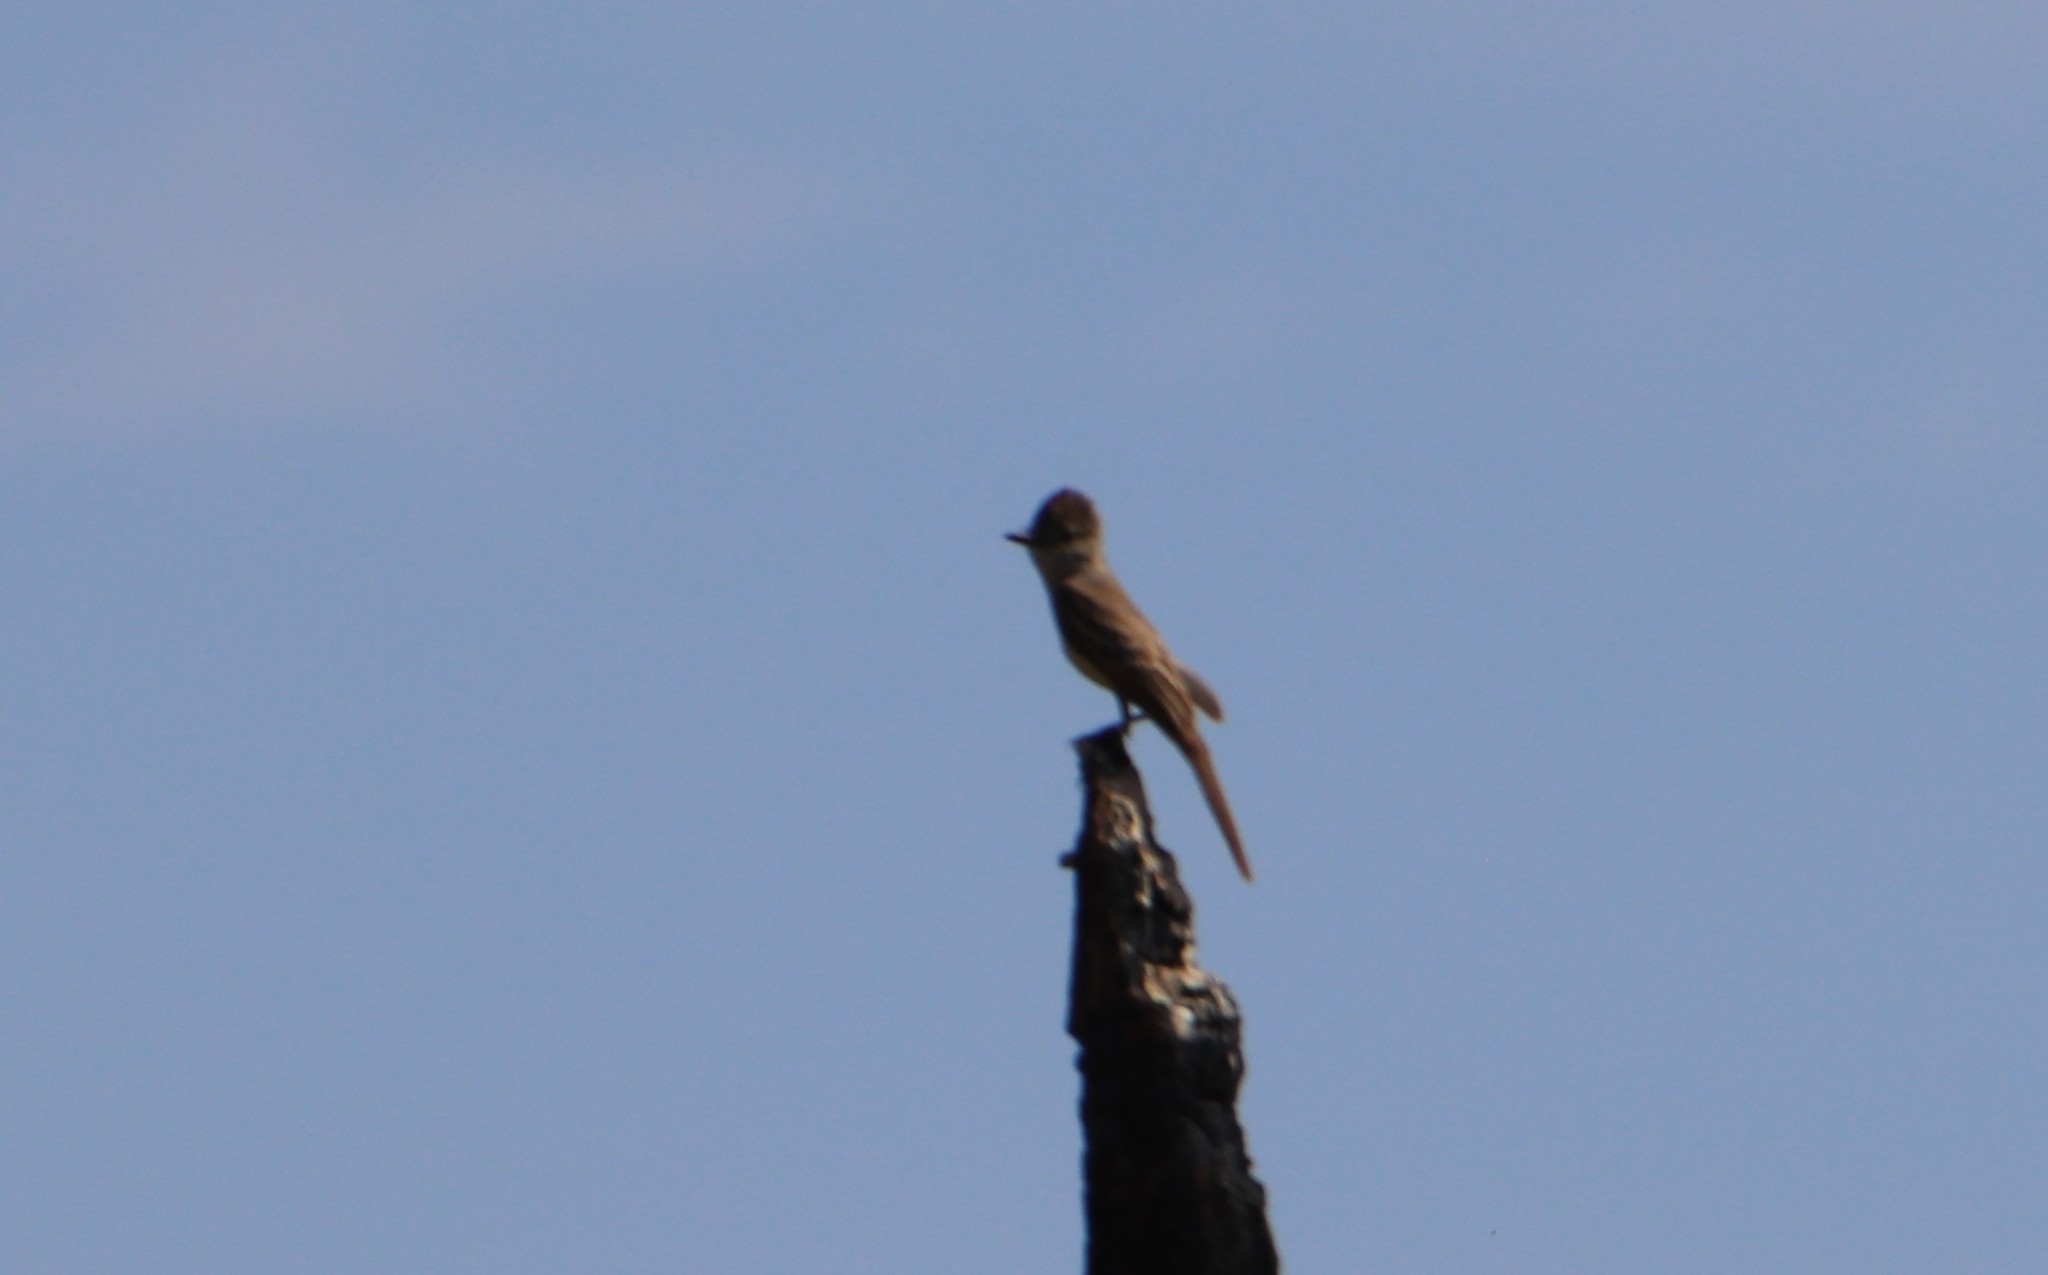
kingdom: Animalia
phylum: Chordata
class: Aves
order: Passeriformes
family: Tyrannidae
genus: Myiarchus
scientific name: Myiarchus cinerascens
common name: Ash-throated flycatcher
